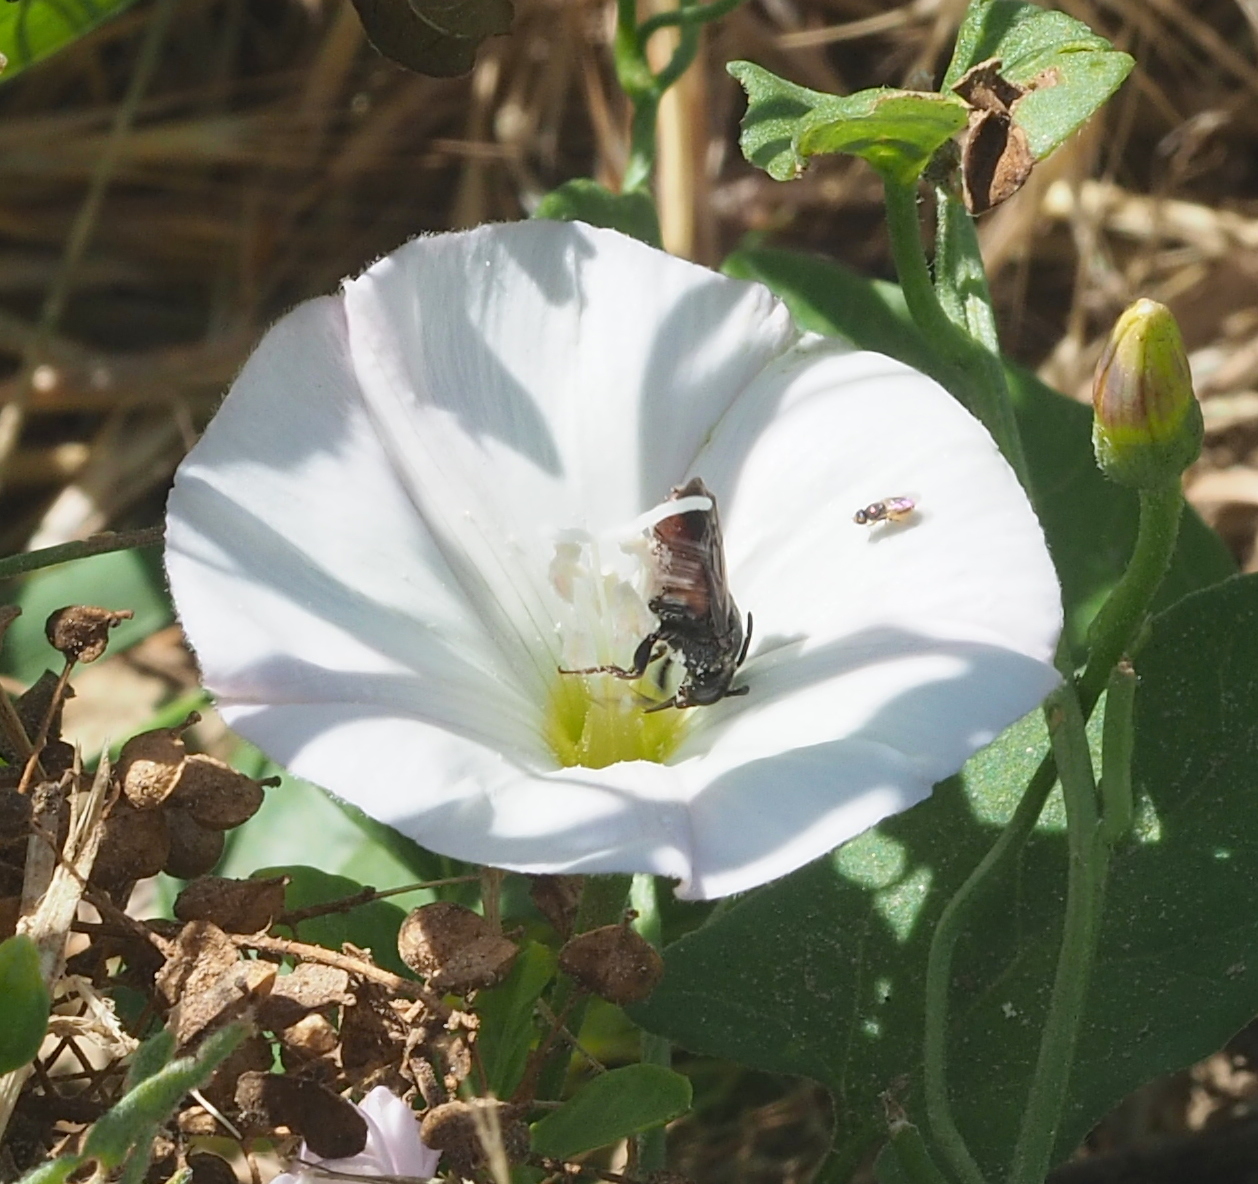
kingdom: Animalia
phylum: Arthropoda
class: Insecta
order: Hymenoptera
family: Apidae
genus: Biastes
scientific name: Biastes brevicornis
